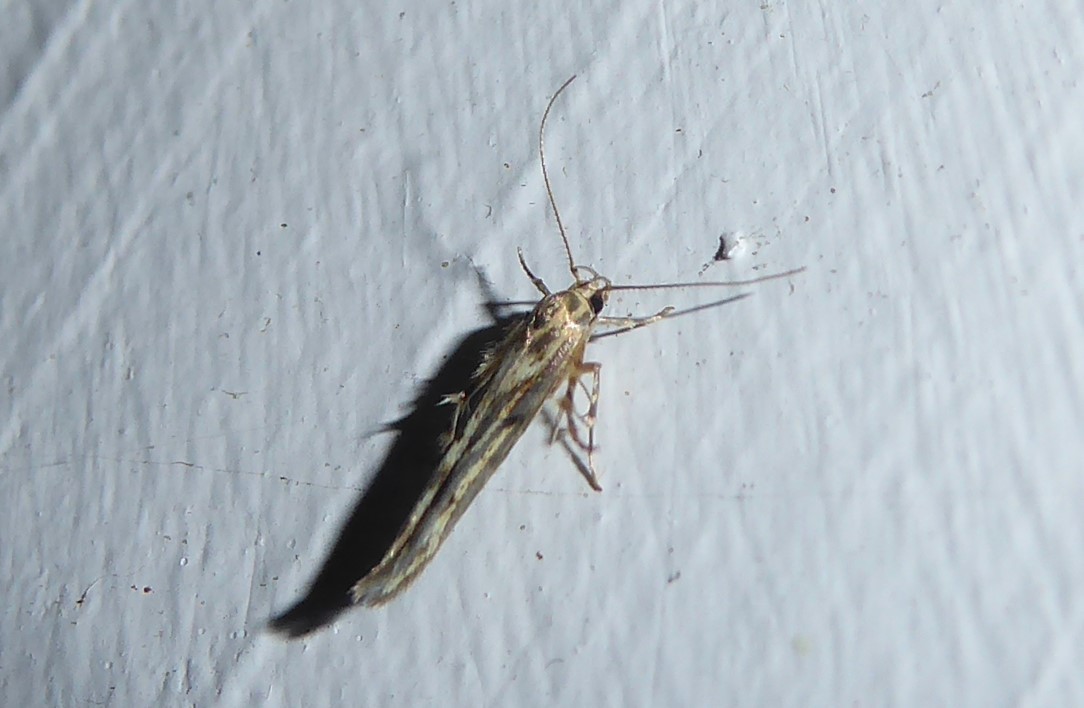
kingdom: Animalia
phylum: Arthropoda
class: Insecta
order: Lepidoptera
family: Stathmopodidae
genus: Stathmopoda
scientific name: Stathmopoda plumbiflua
